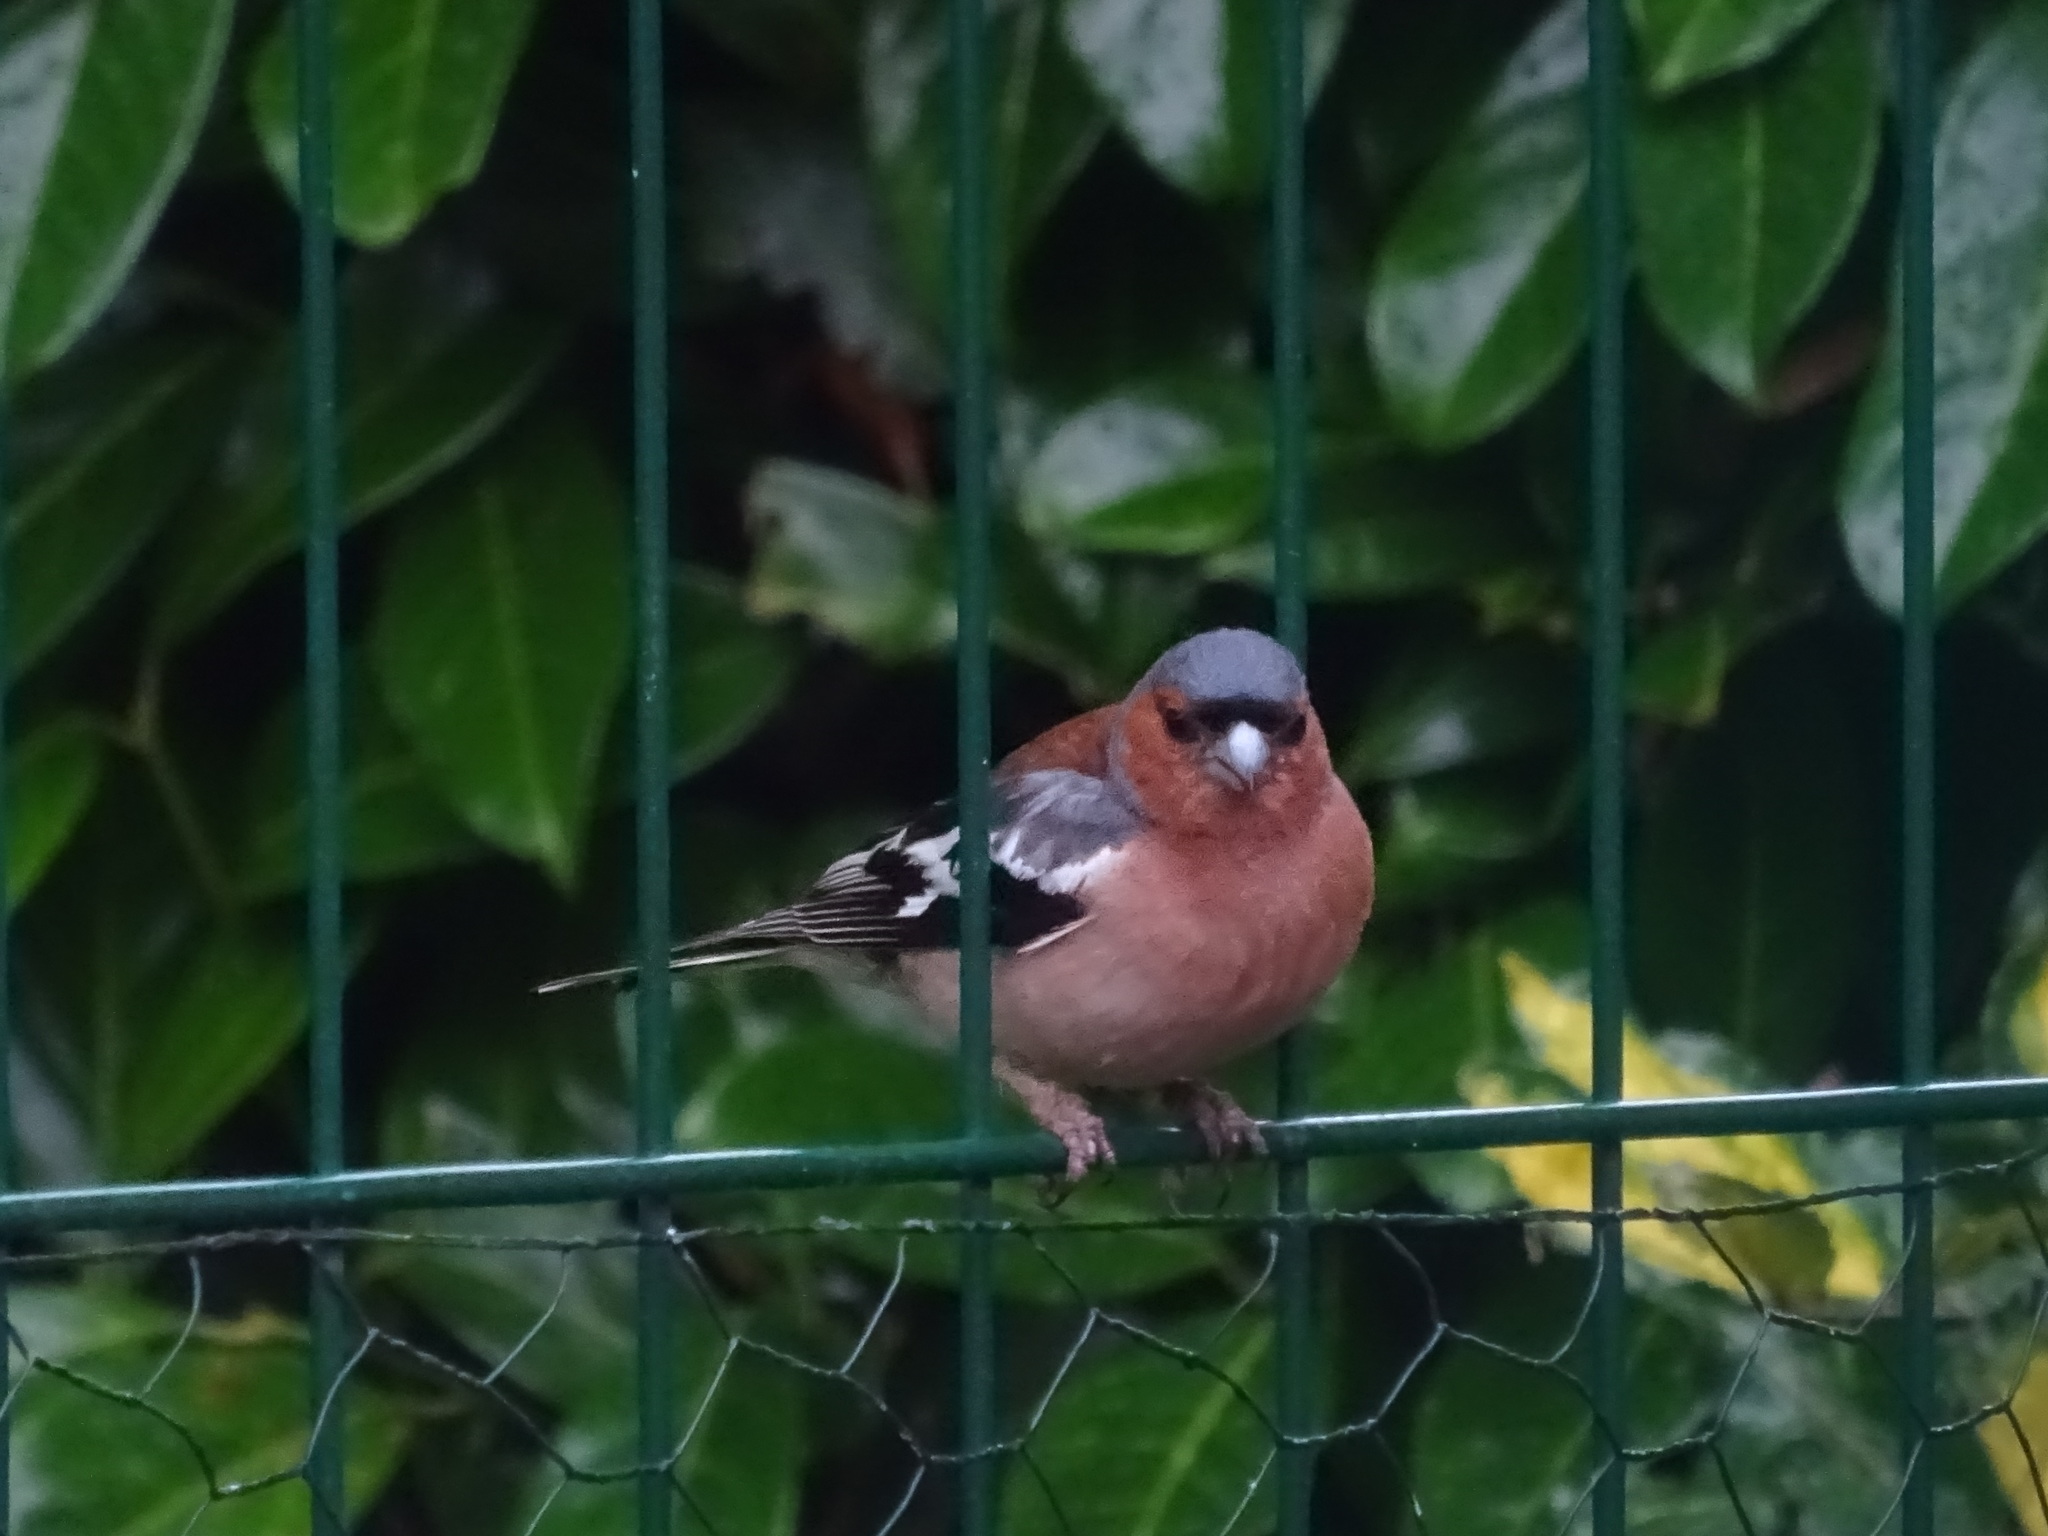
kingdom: Animalia
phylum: Chordata
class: Aves
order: Passeriformes
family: Fringillidae
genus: Fringilla
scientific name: Fringilla coelebs
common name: Common chaffinch
